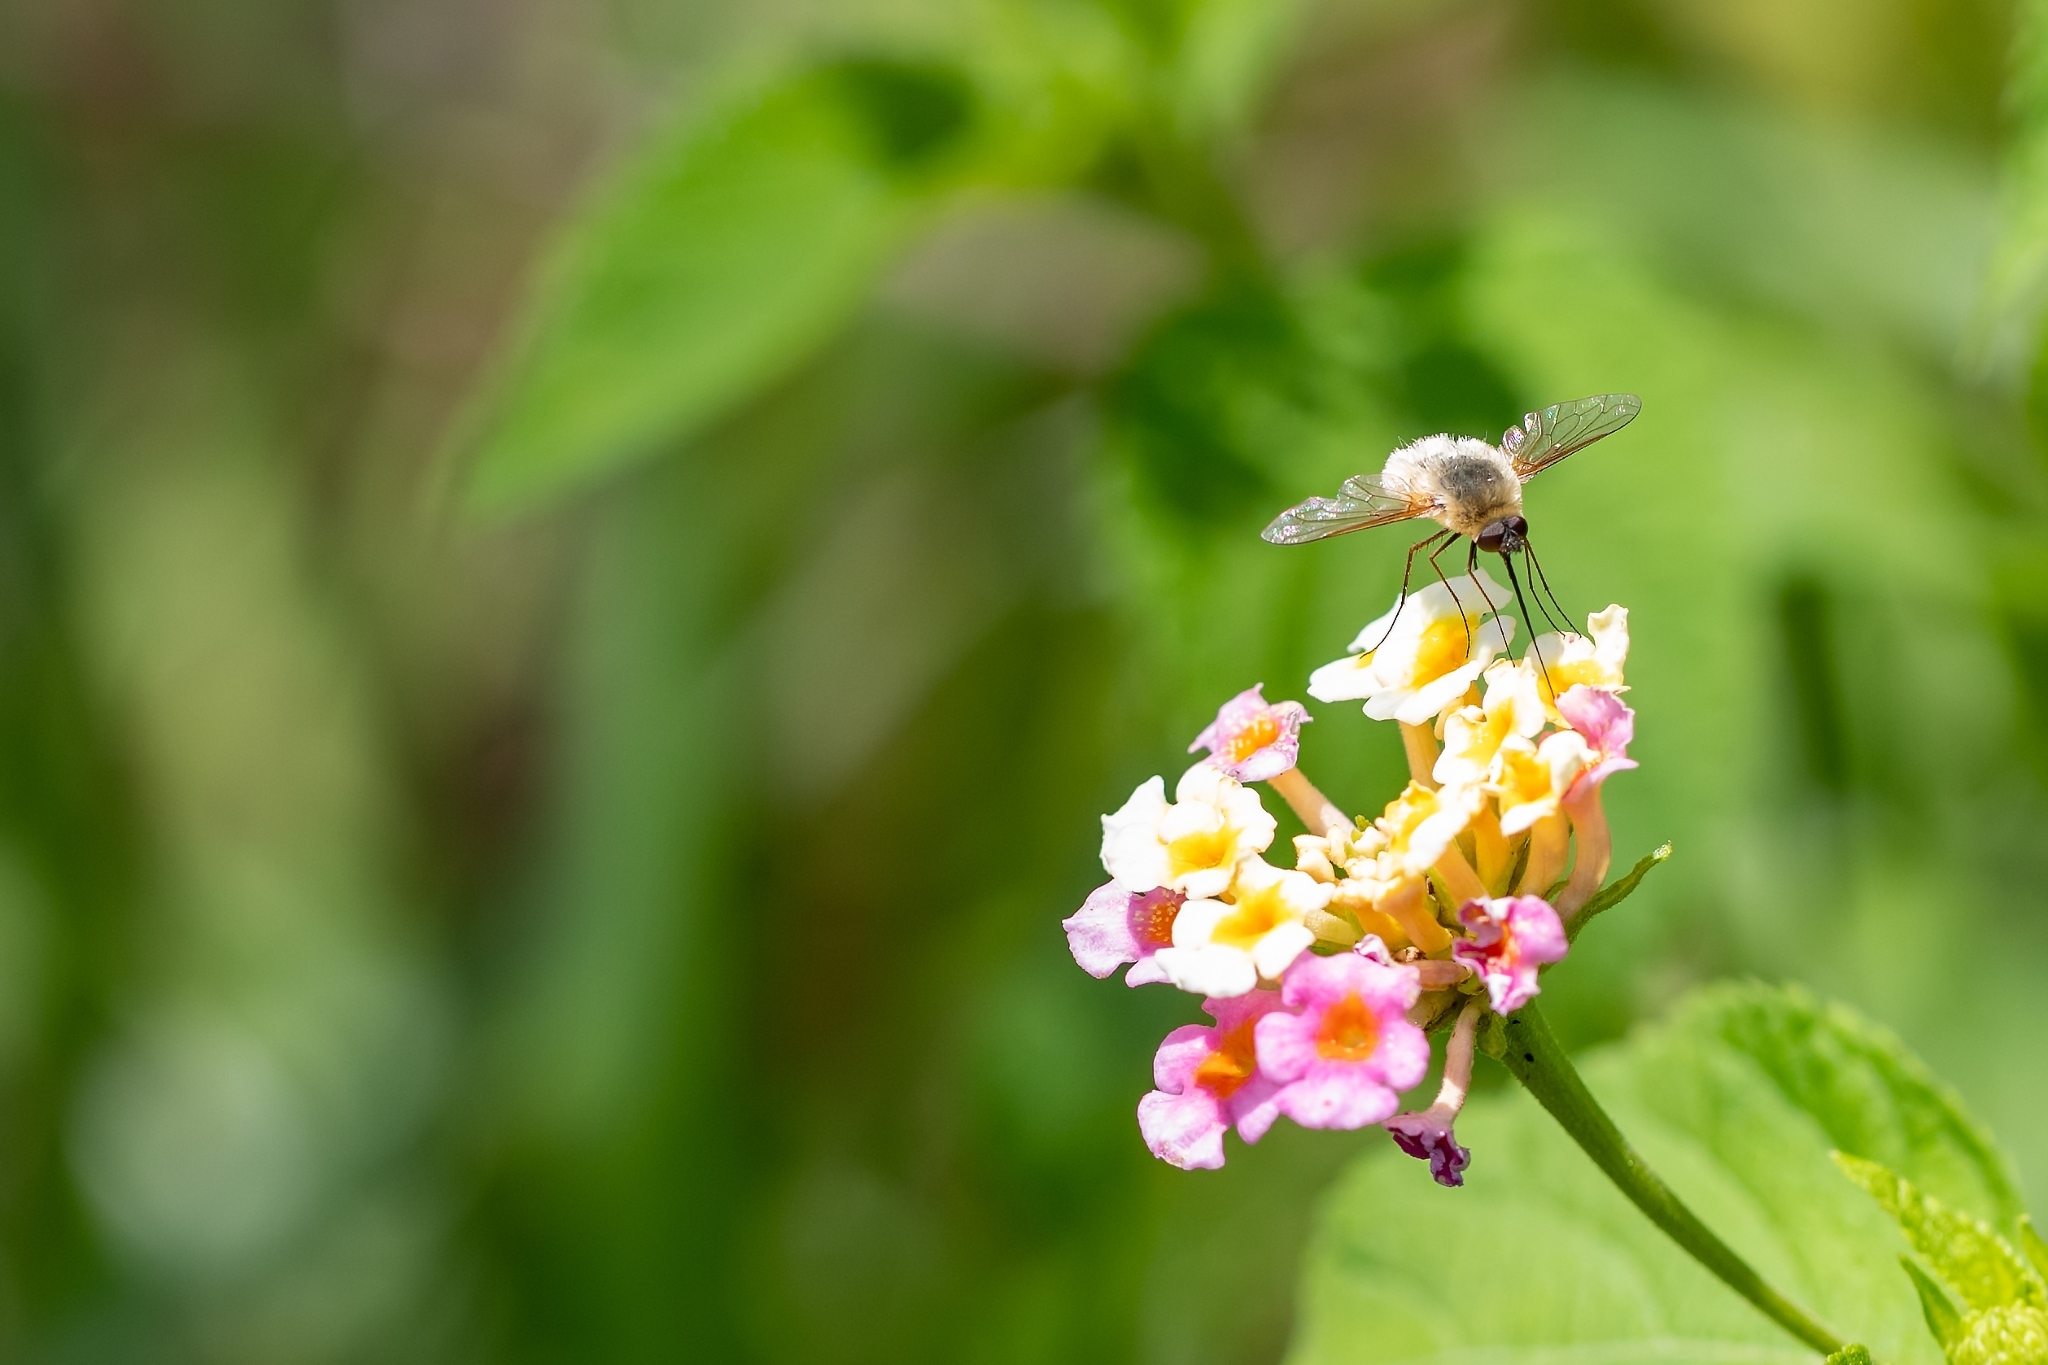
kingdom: Animalia
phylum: Arthropoda
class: Insecta
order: Diptera
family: Bombyliidae
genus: Systoechus
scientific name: Systoechus candidulus
